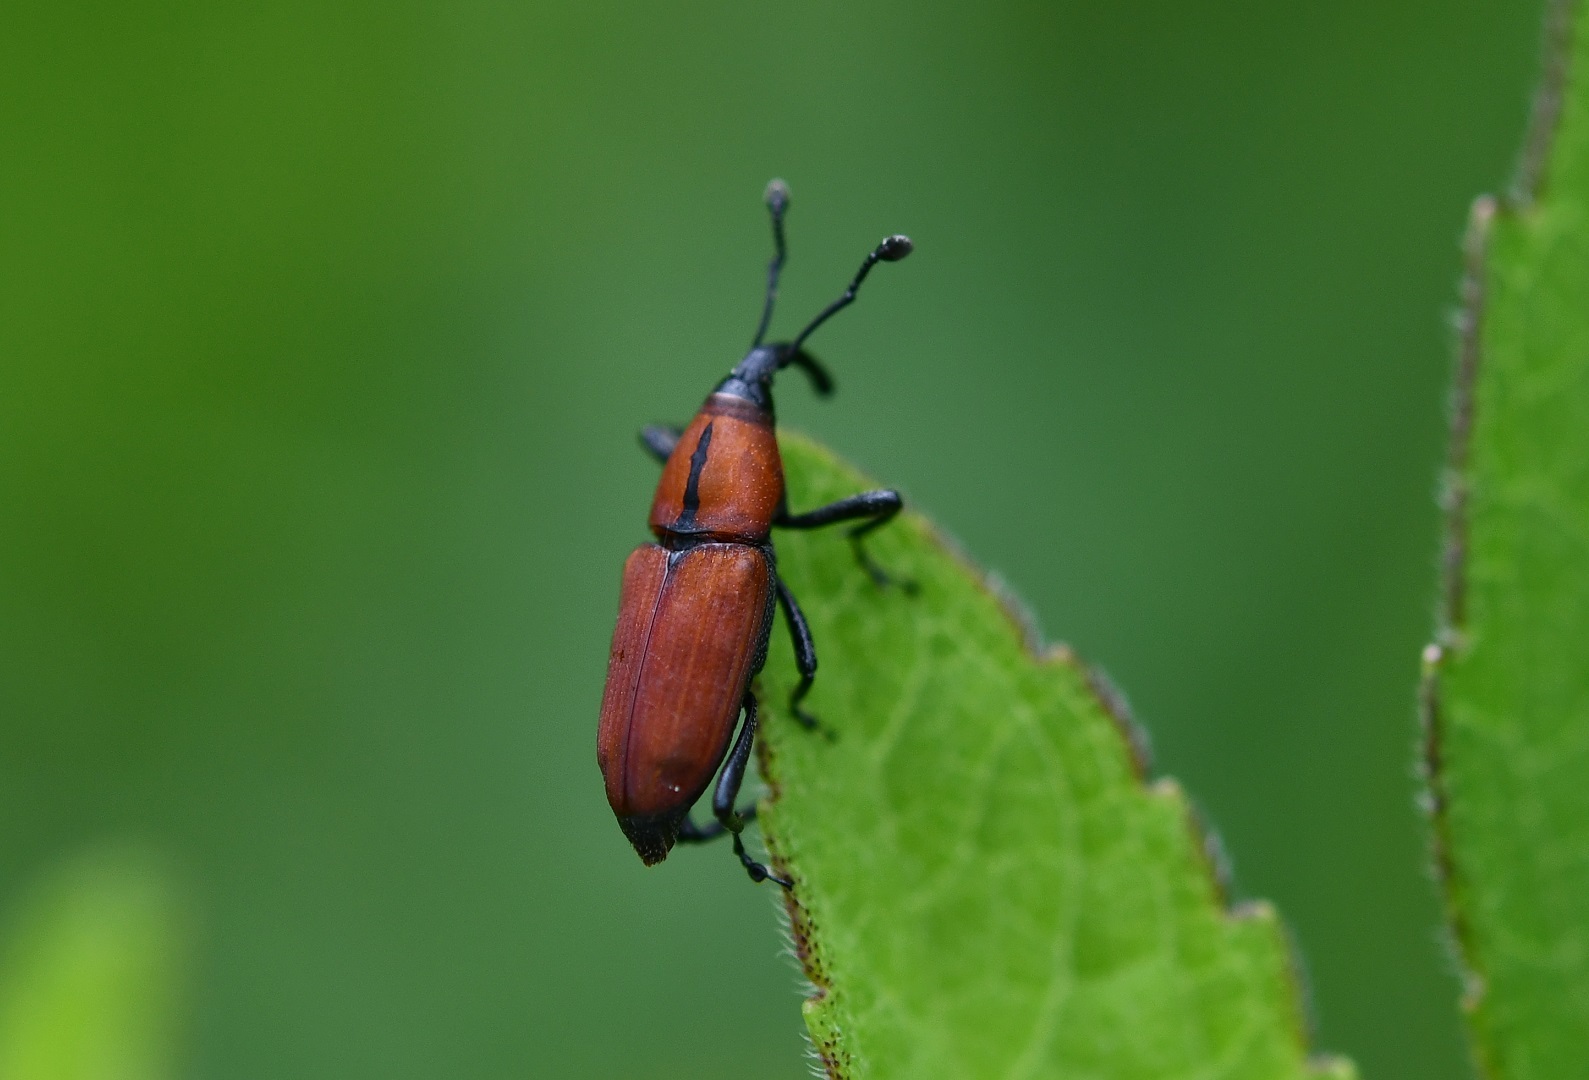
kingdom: Animalia
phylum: Arthropoda
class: Insecta
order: Coleoptera
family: Dryophthoridae
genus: Rhodobaenus
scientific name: Rhodobaenus sanguineus
